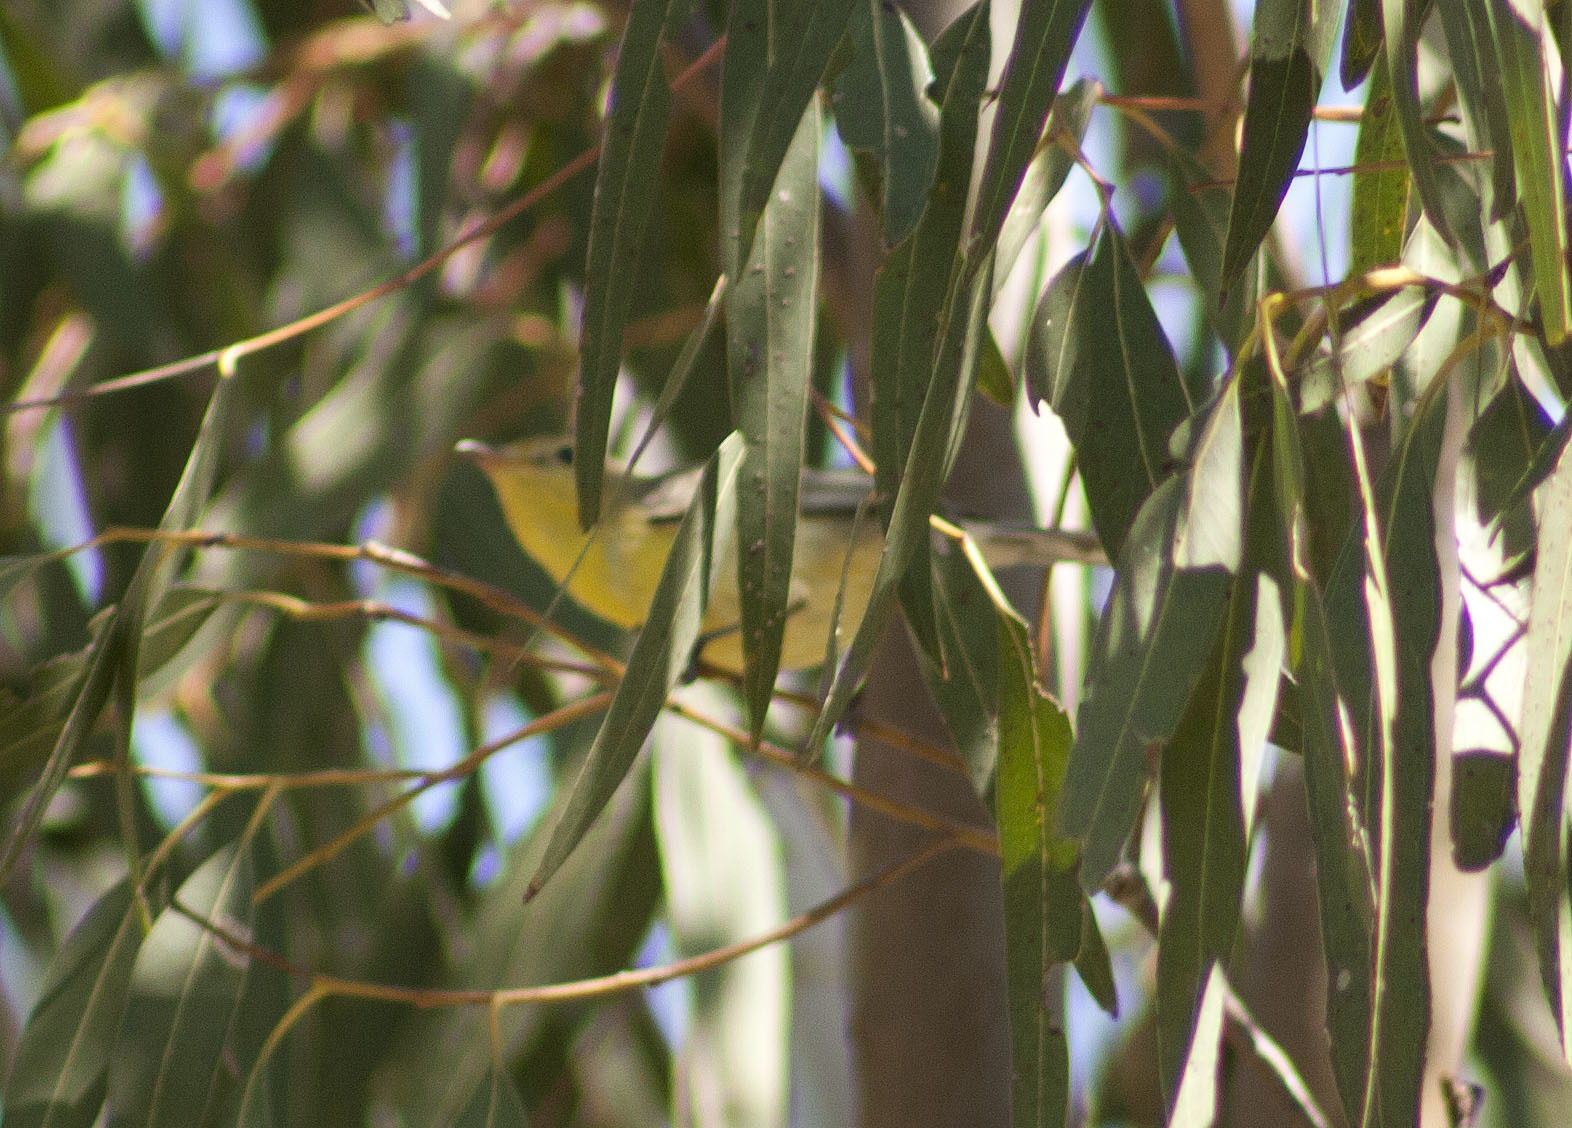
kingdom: Animalia
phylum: Chordata
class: Aves
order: Passeriformes
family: Acanthizidae
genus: Gerygone
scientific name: Gerygone olivacea
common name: White-throated gerygone
